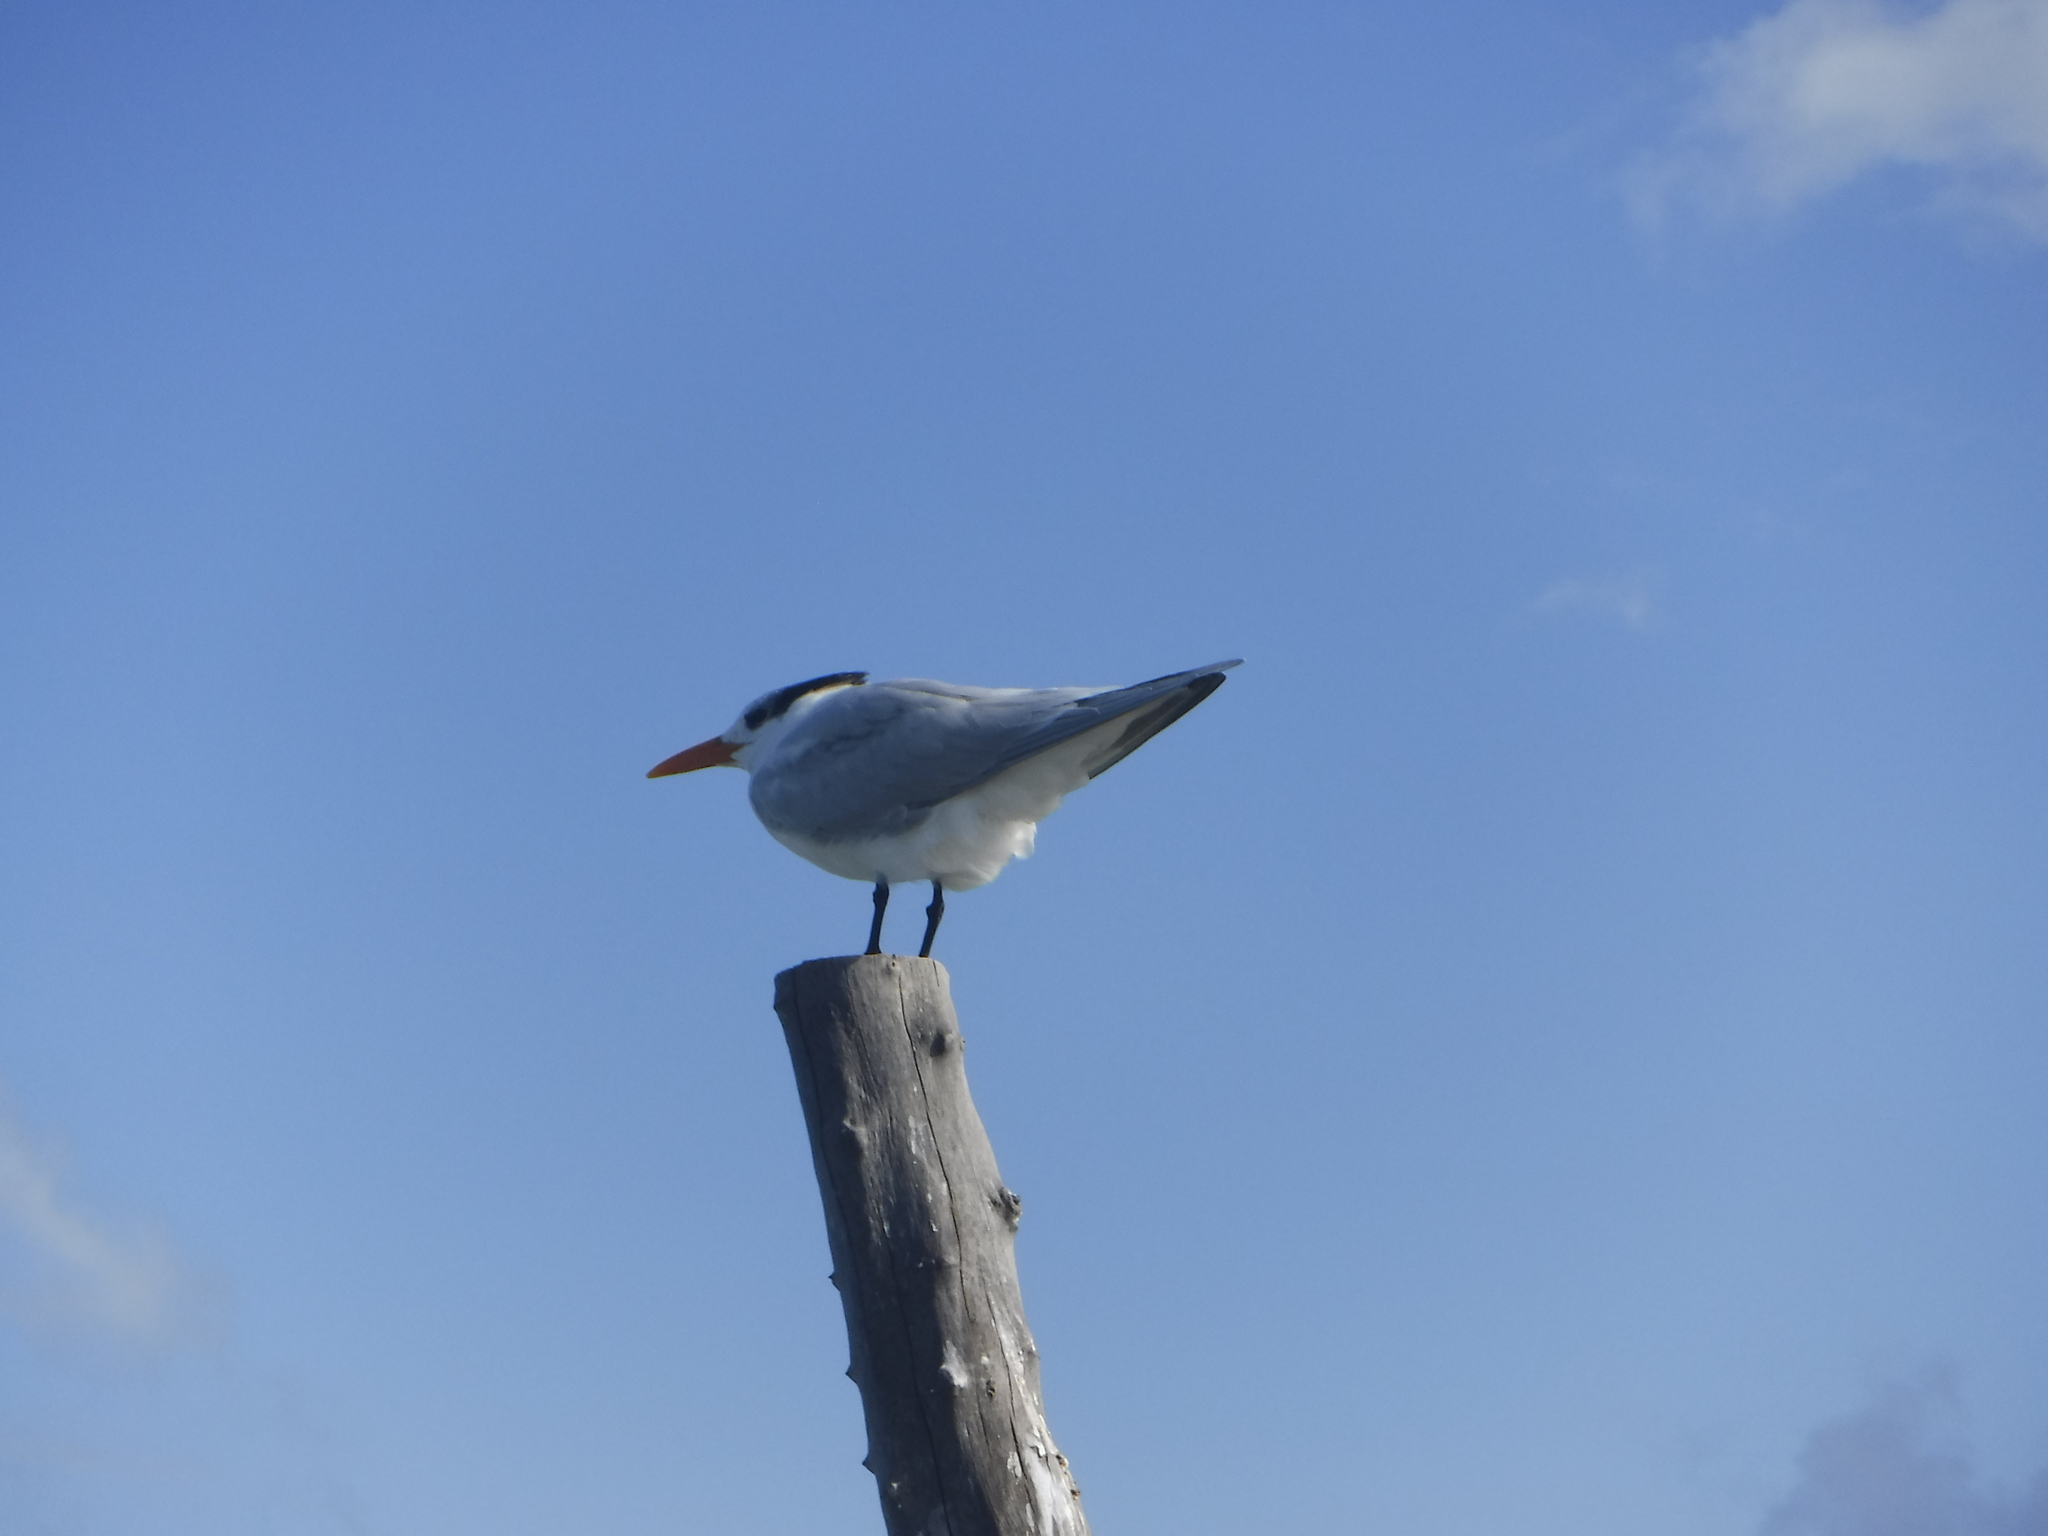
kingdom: Animalia
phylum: Chordata
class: Aves
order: Charadriiformes
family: Laridae
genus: Thalasseus
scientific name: Thalasseus maximus
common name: Royal tern
